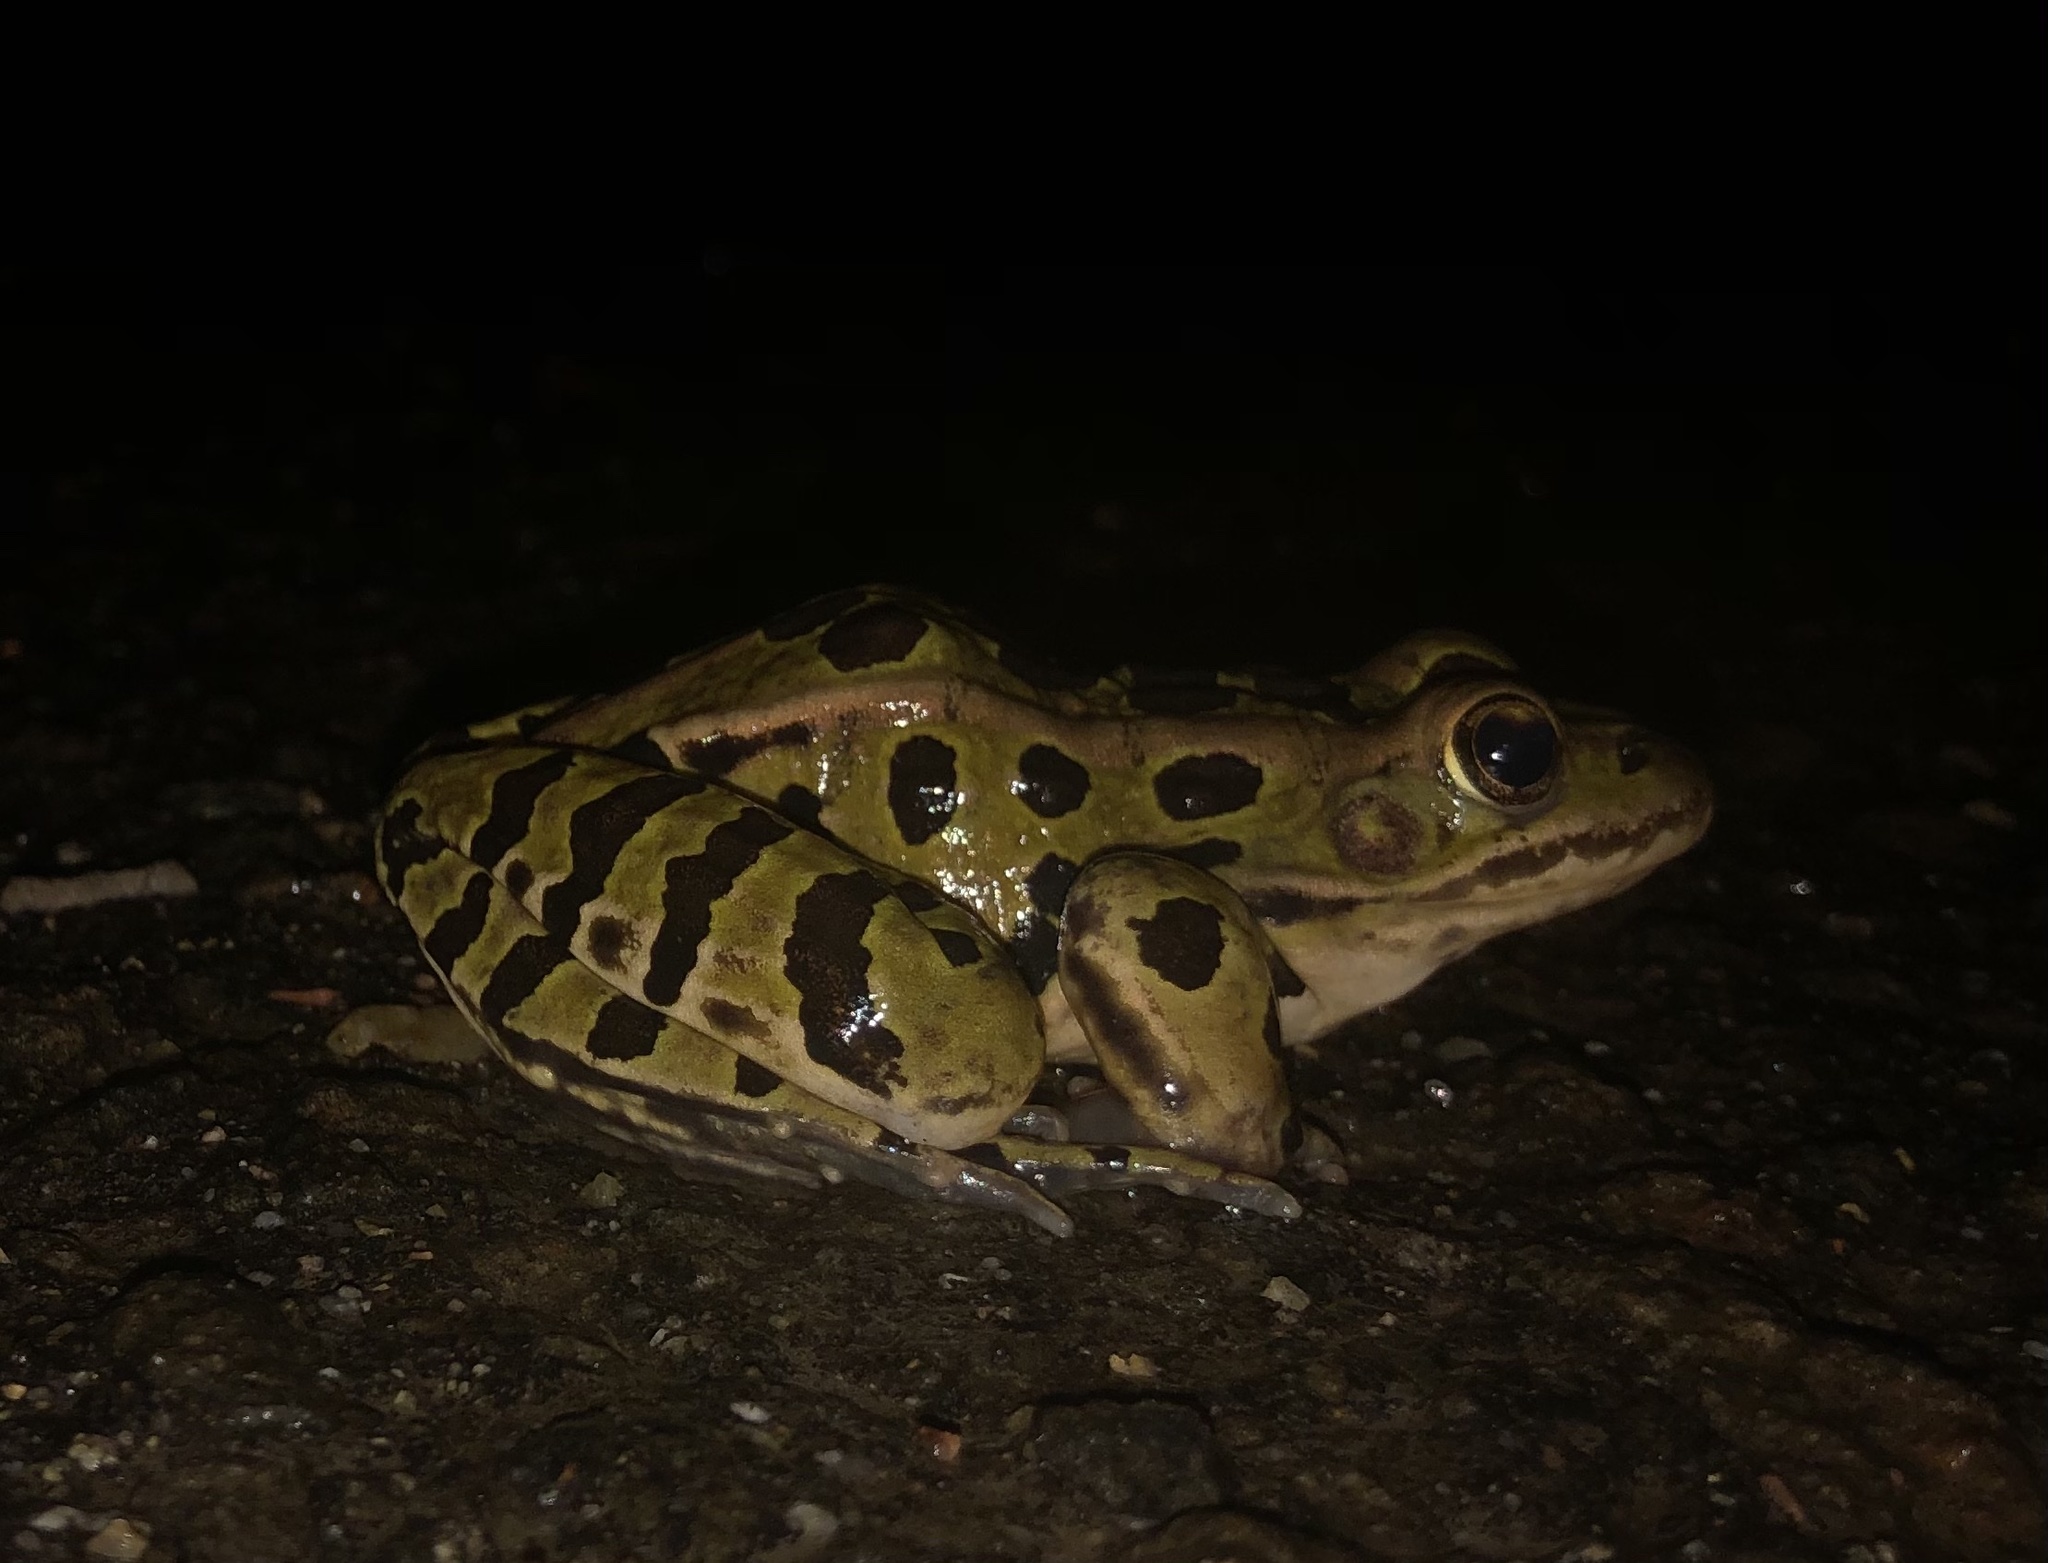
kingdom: Animalia
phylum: Chordata
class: Amphibia
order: Anura
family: Ranidae
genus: Lithobates
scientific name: Lithobates pipiens
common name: Northern leopard frog
